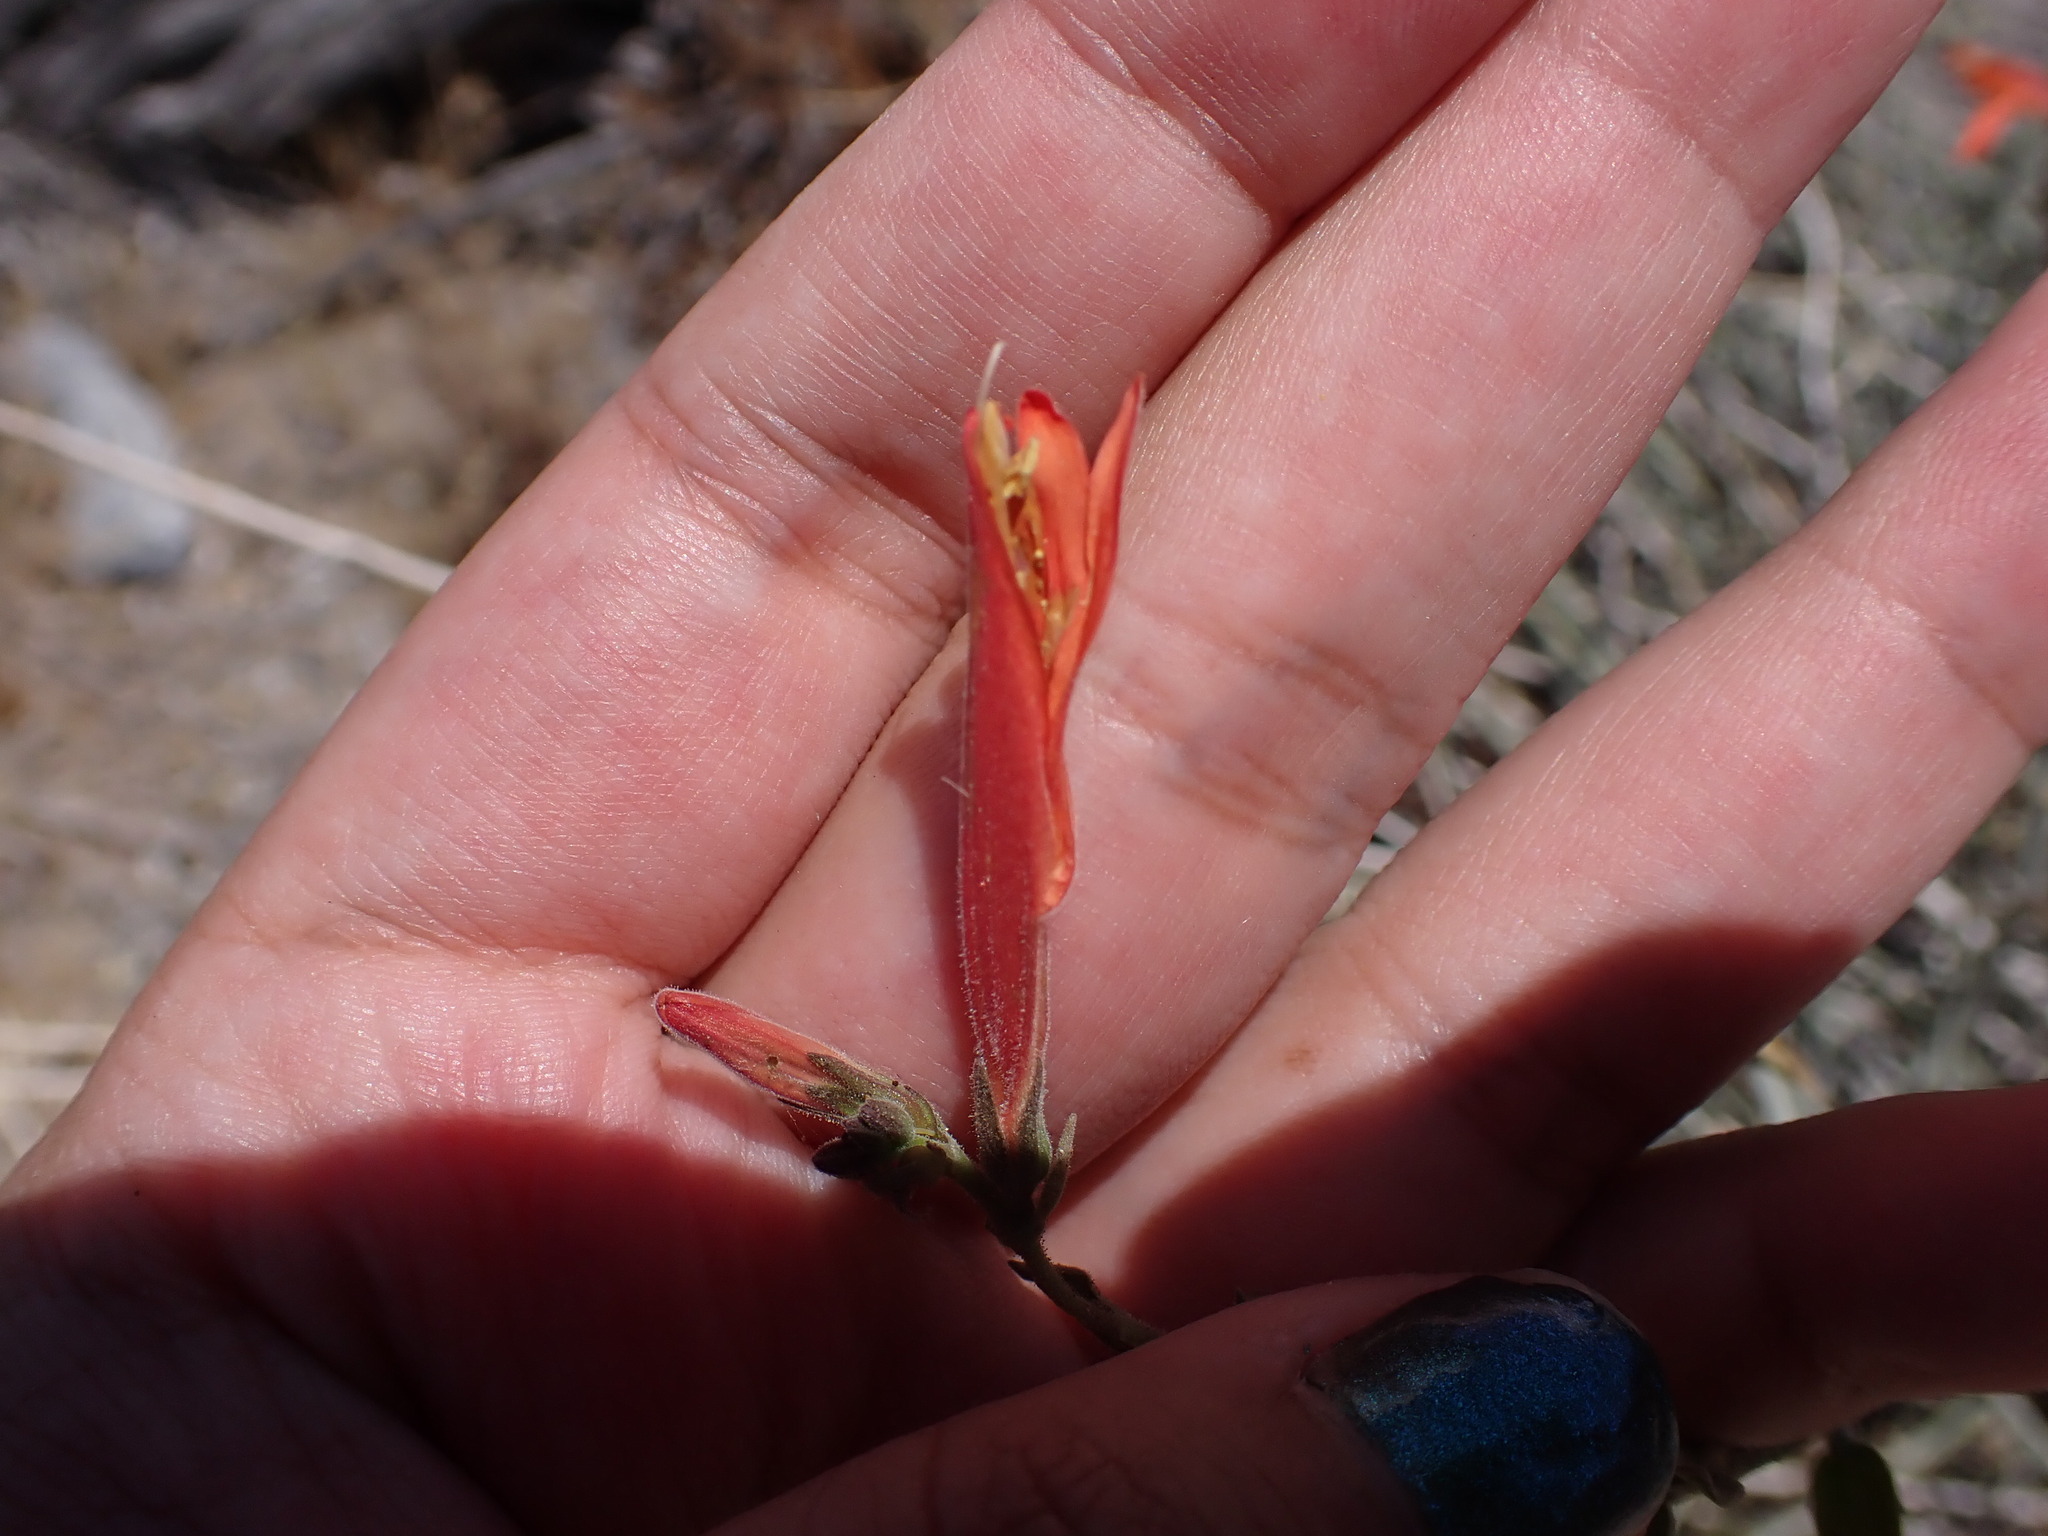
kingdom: Plantae
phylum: Tracheophyta
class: Magnoliopsida
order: Lamiales
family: Acanthaceae
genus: Justicia
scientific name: Justicia californica
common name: Chuparosa-honeysuckle
